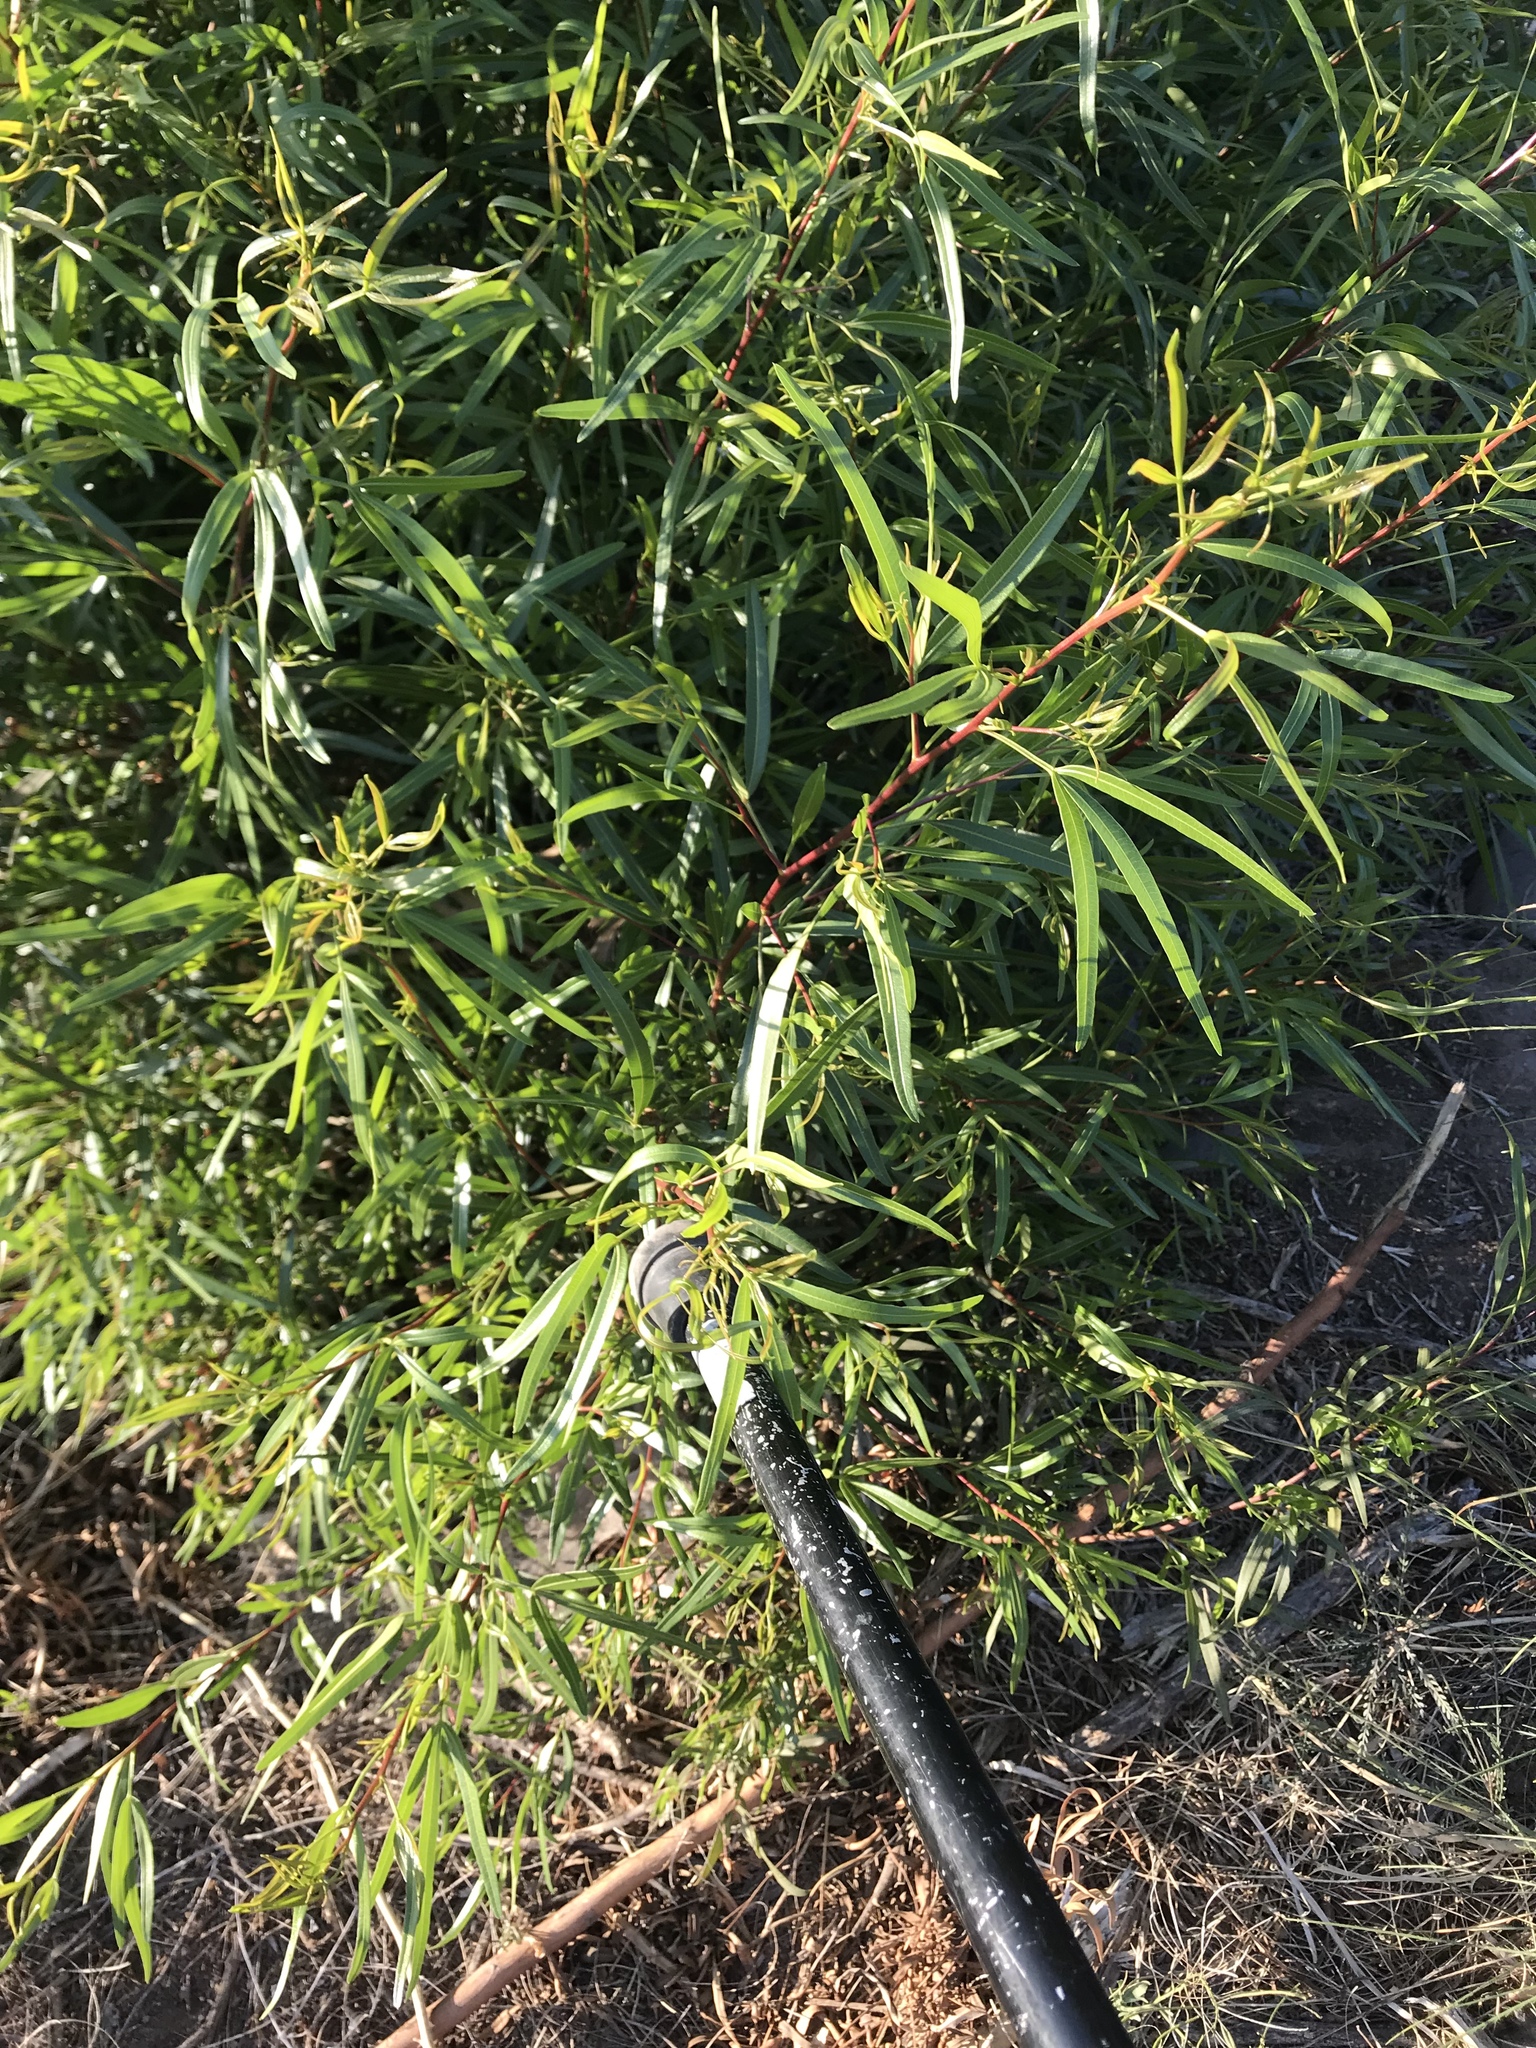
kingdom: Plantae
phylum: Tracheophyta
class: Magnoliopsida
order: Sapindales
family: Anacardiaceae
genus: Searsia
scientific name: Searsia lancea
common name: Cashew
